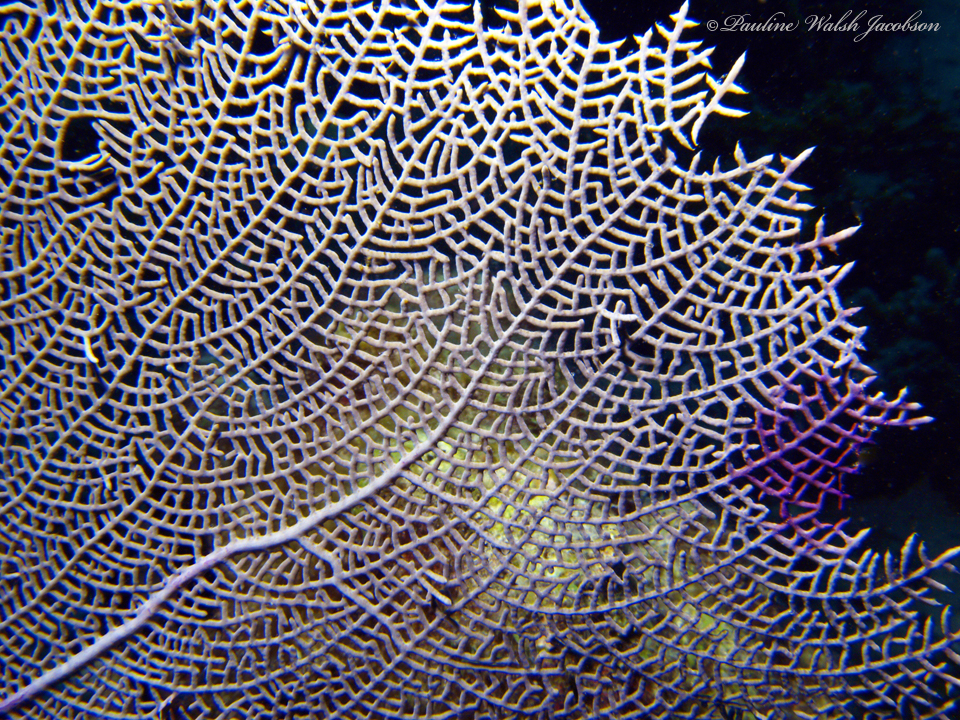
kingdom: Animalia
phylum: Cnidaria
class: Anthozoa
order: Malacalcyonacea
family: Gorgoniidae
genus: Gorgonia
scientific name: Gorgonia ventalina
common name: Common sea fan
